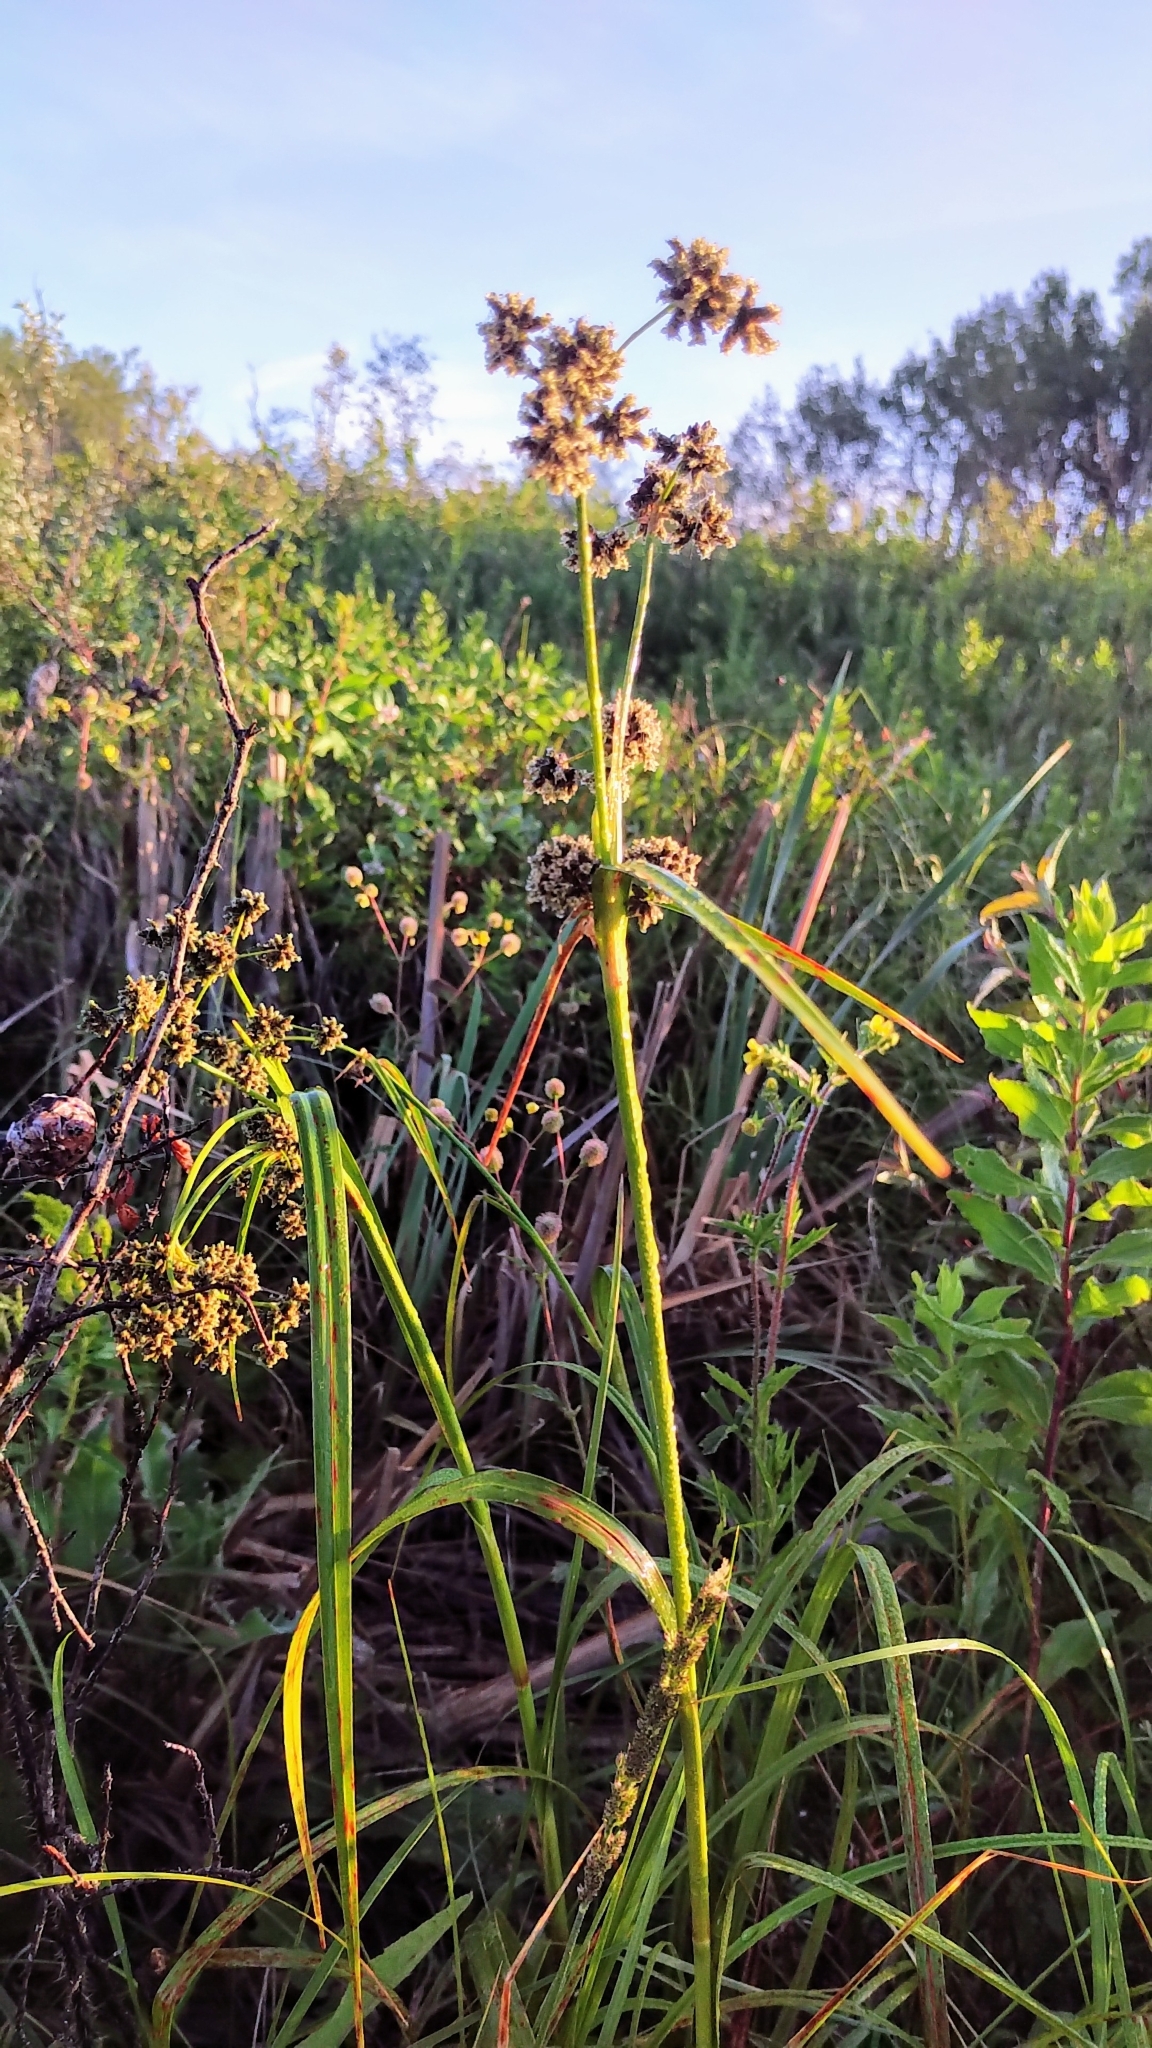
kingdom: Plantae
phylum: Tracheophyta
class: Liliopsida
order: Poales
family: Cyperaceae
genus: Scirpus
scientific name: Scirpus microcarpus
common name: Panicled bulrush
